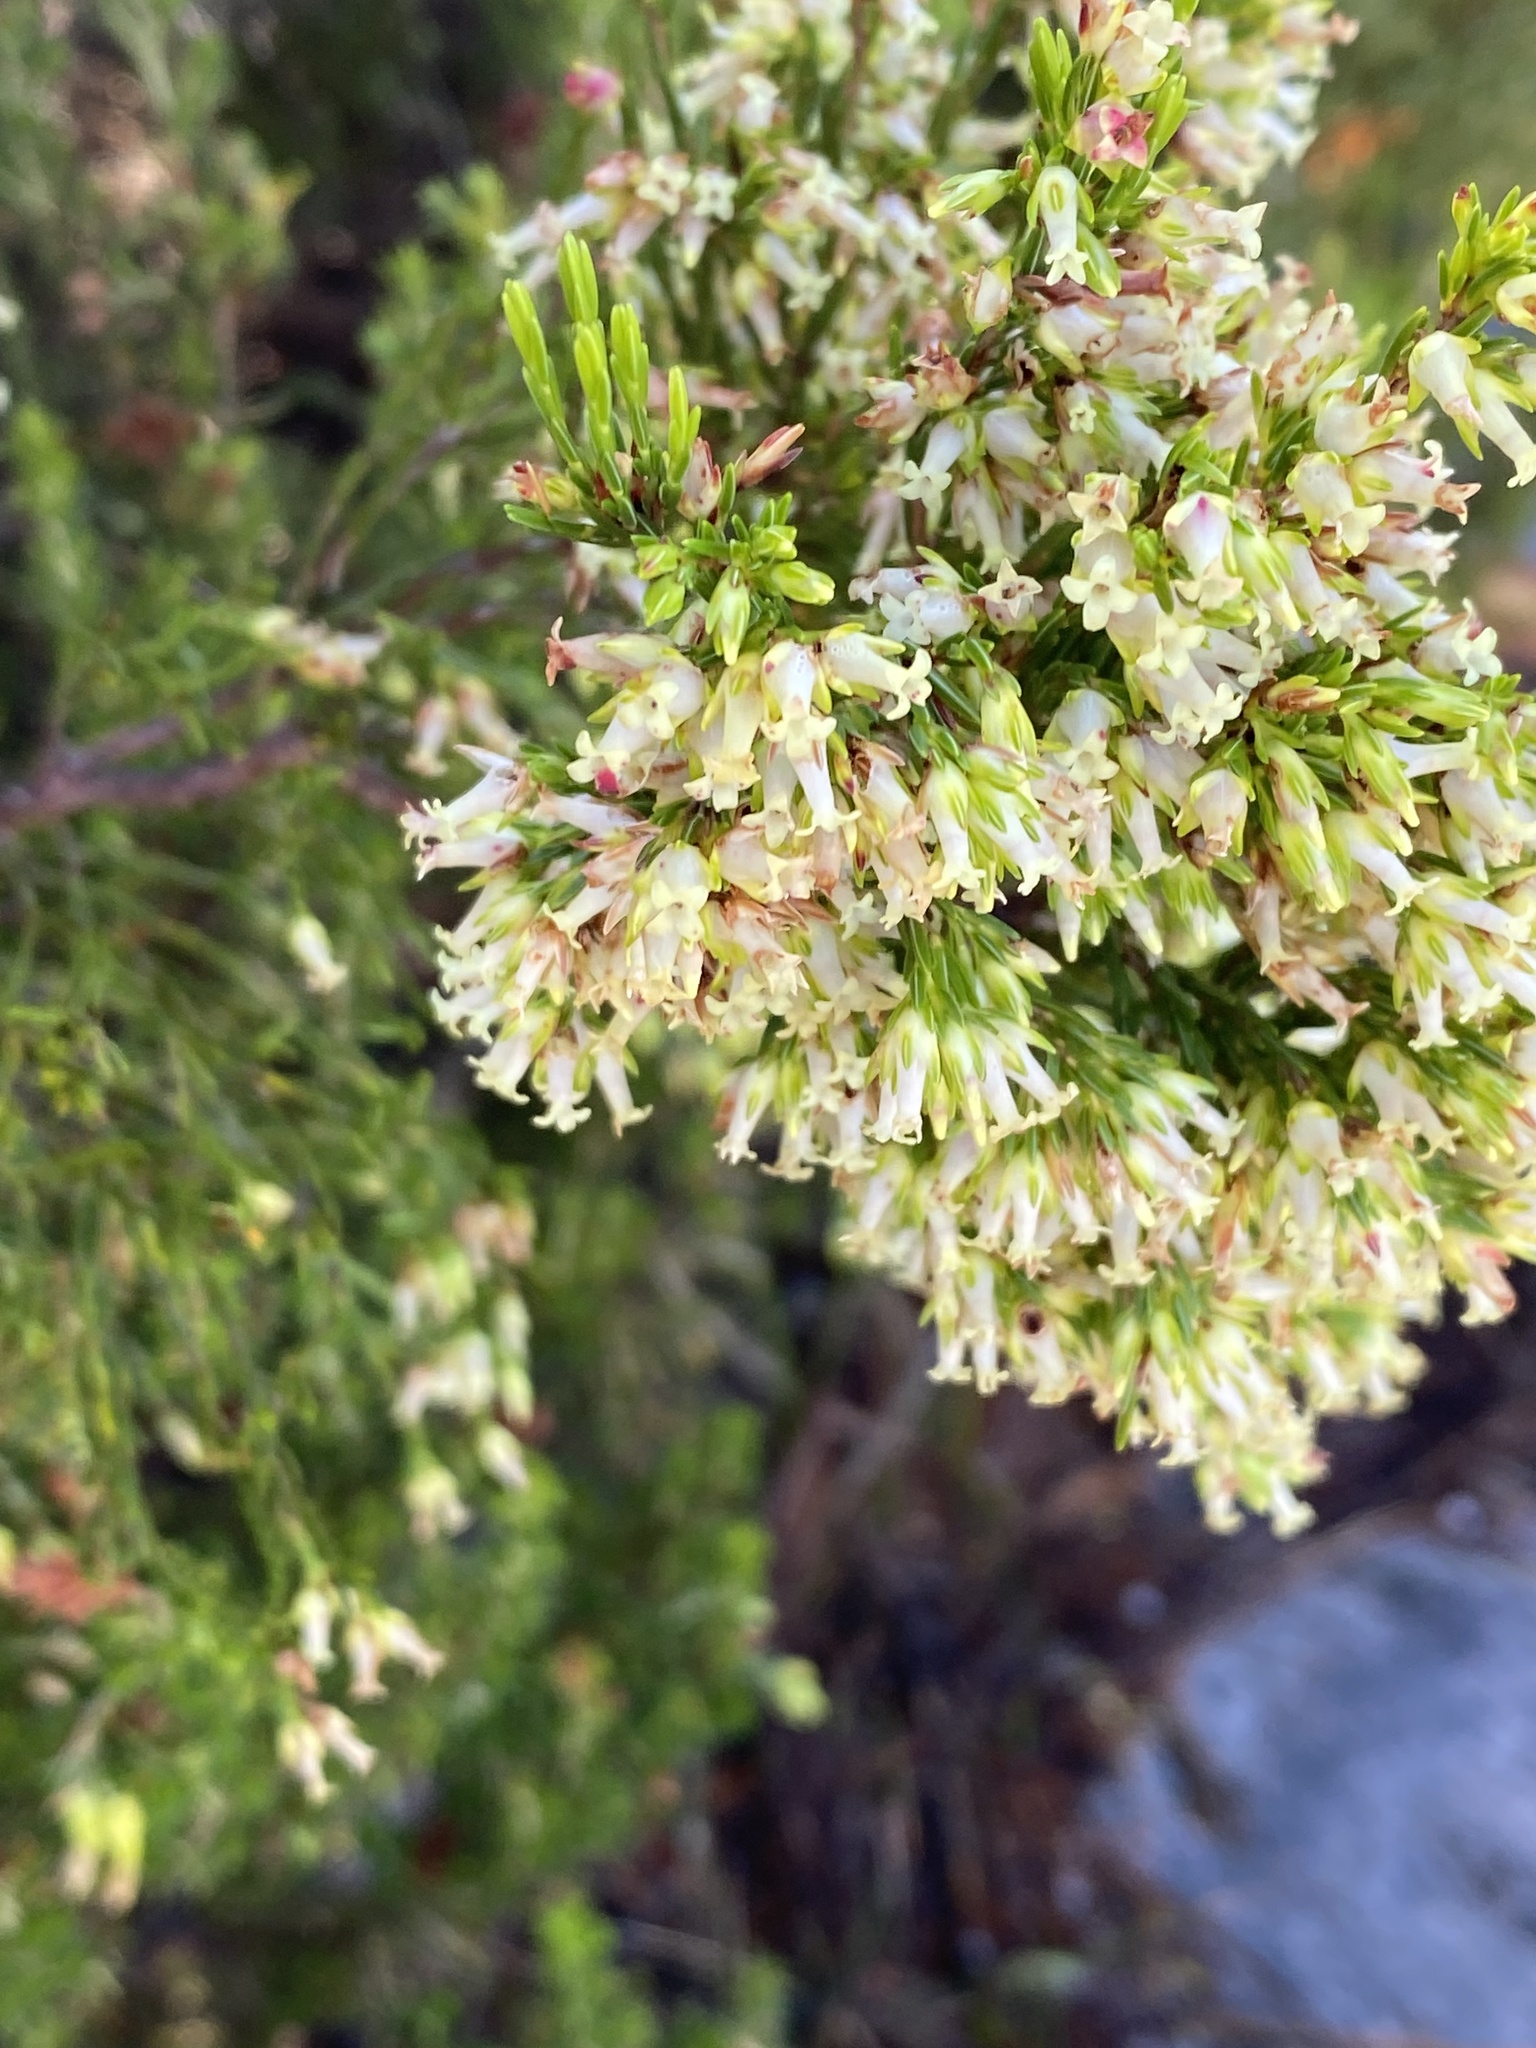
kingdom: Plantae
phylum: Tracheophyta
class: Magnoliopsida
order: Ericales
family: Ericaceae
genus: Erica
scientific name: Erica lutea
